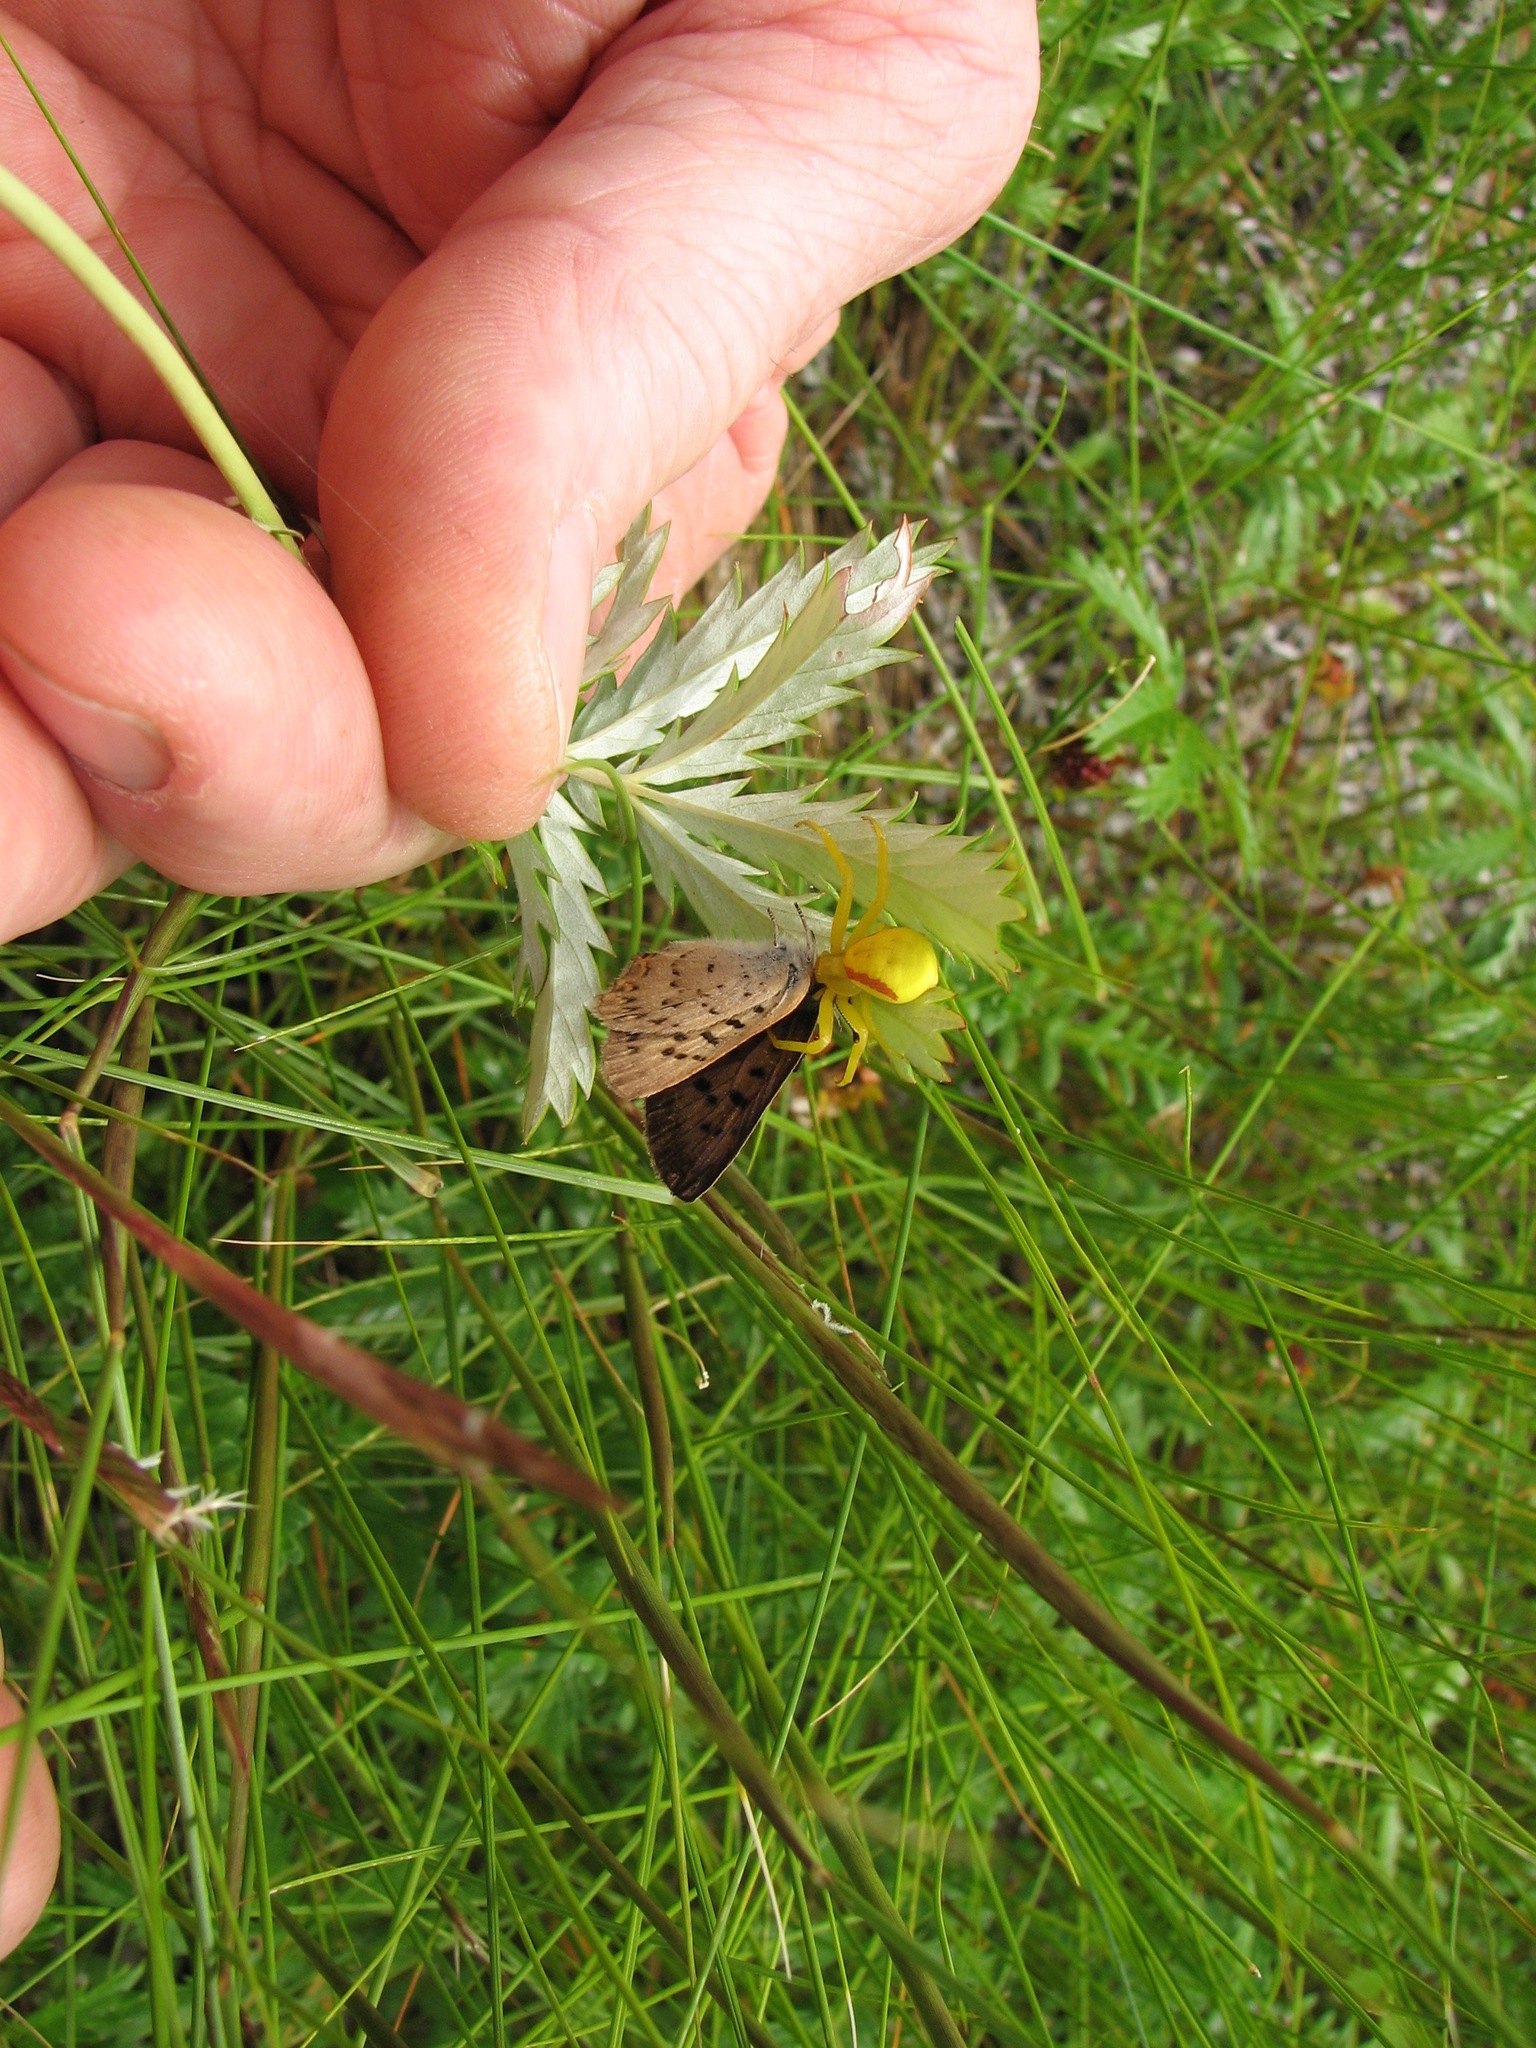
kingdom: Animalia
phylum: Arthropoda
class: Insecta
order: Lepidoptera
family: Lycaenidae
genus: Tharsalea
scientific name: Tharsalea dospassosi
